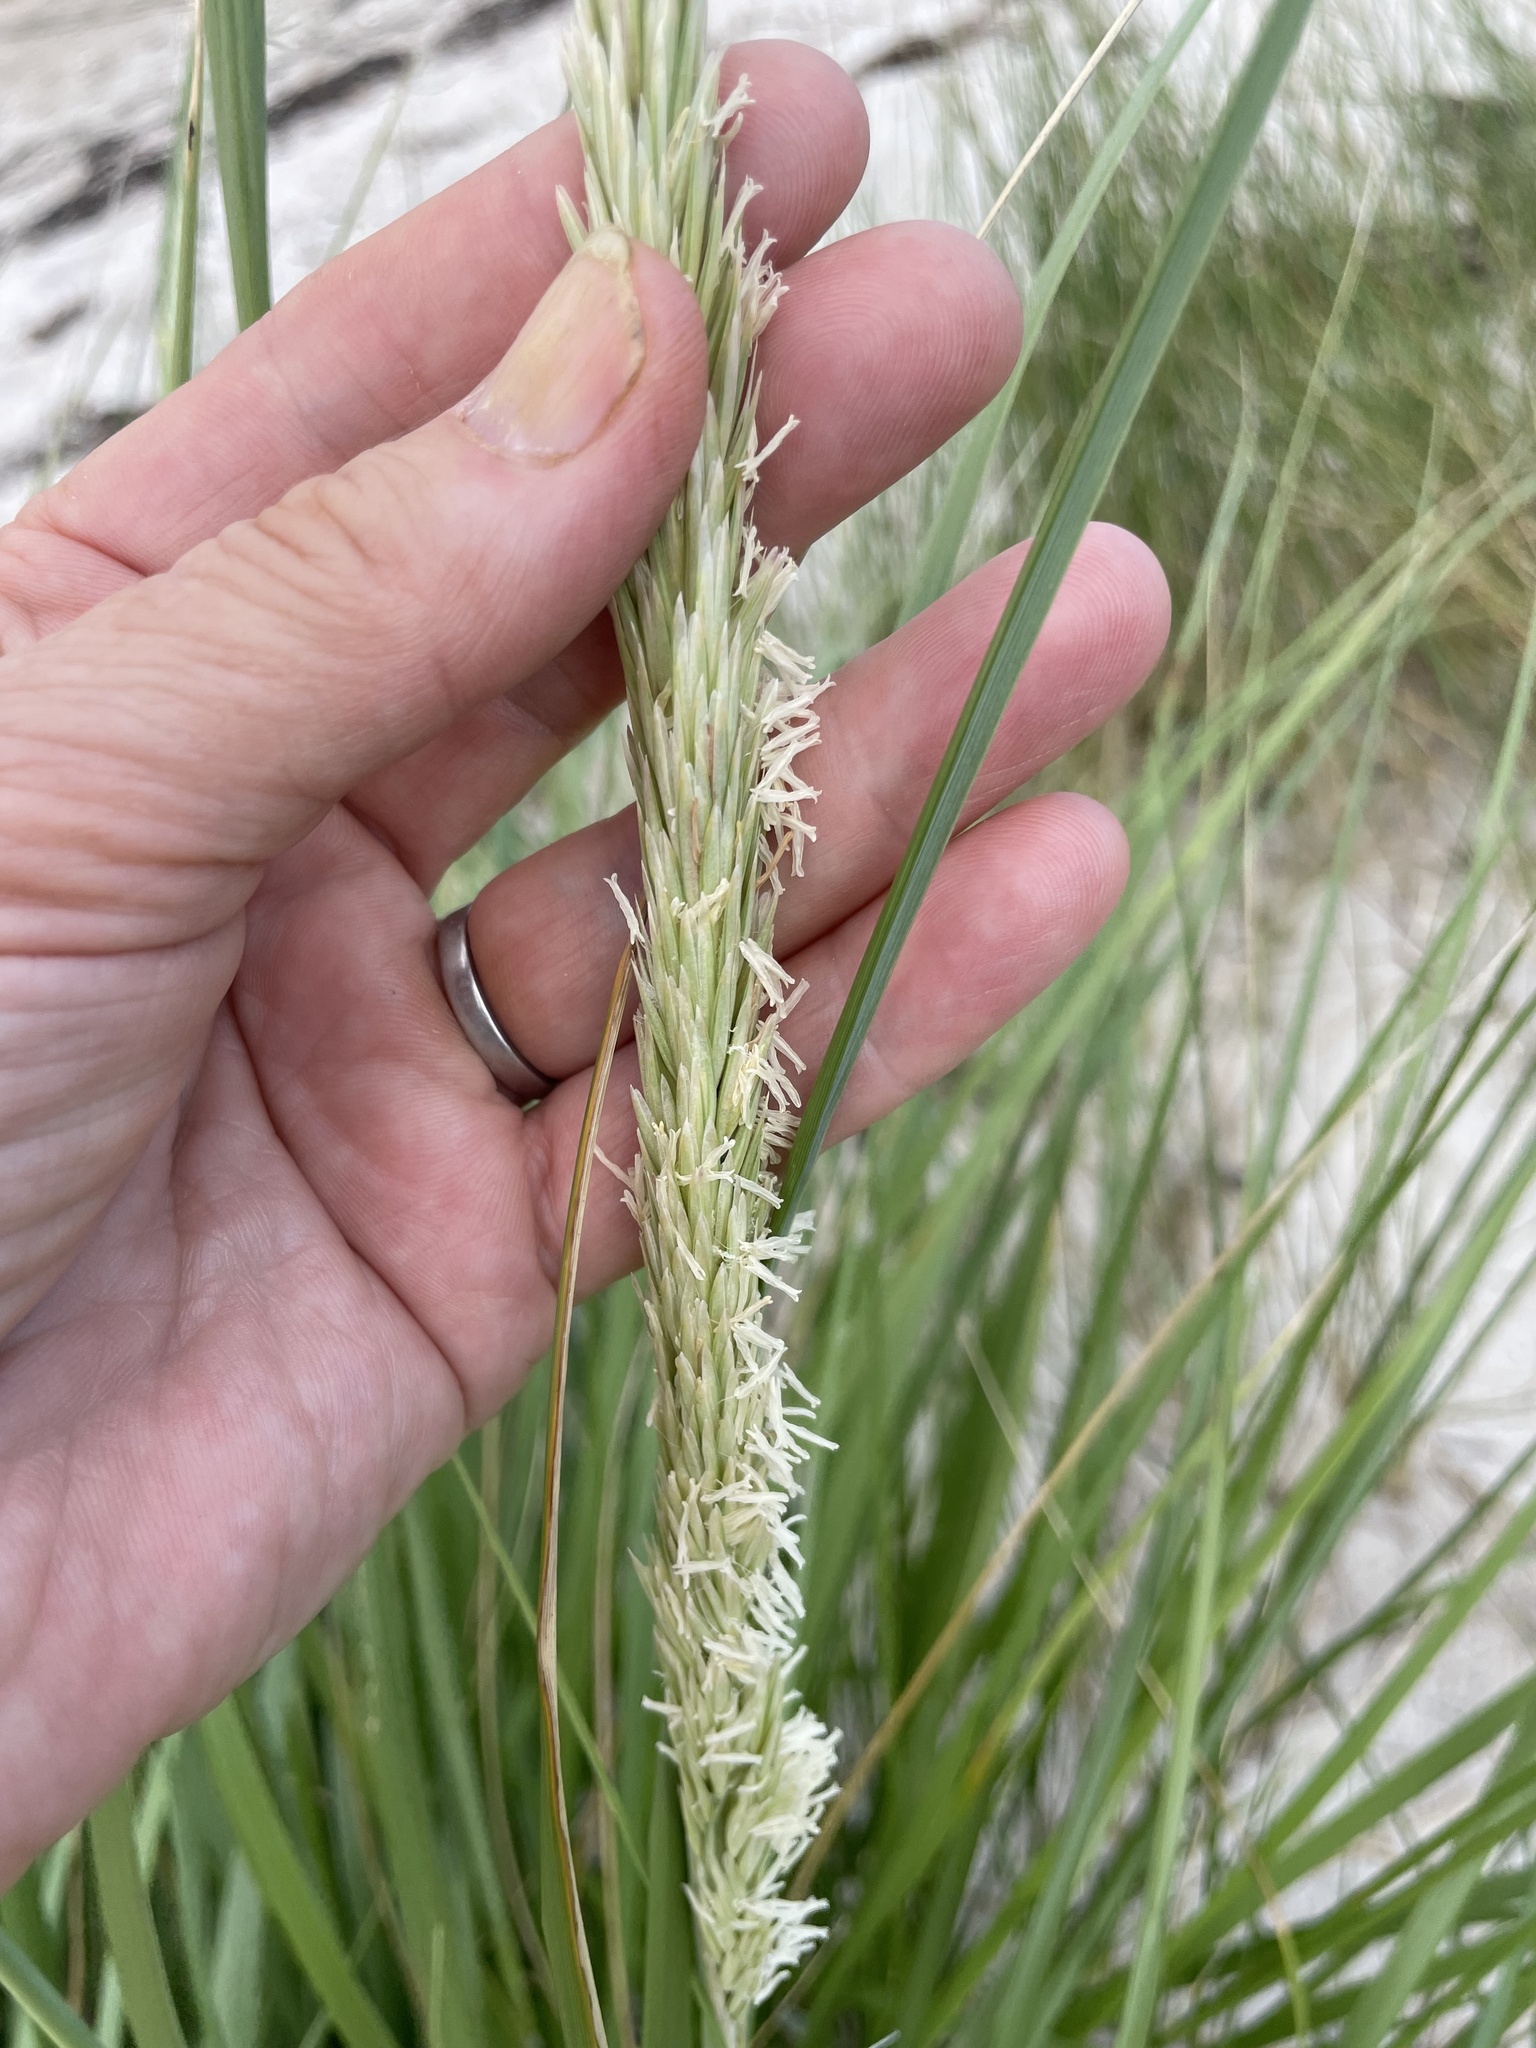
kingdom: Plantae
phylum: Tracheophyta
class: Liliopsida
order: Poales
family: Poaceae
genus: Calamagrostis
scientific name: Calamagrostis breviligulata
